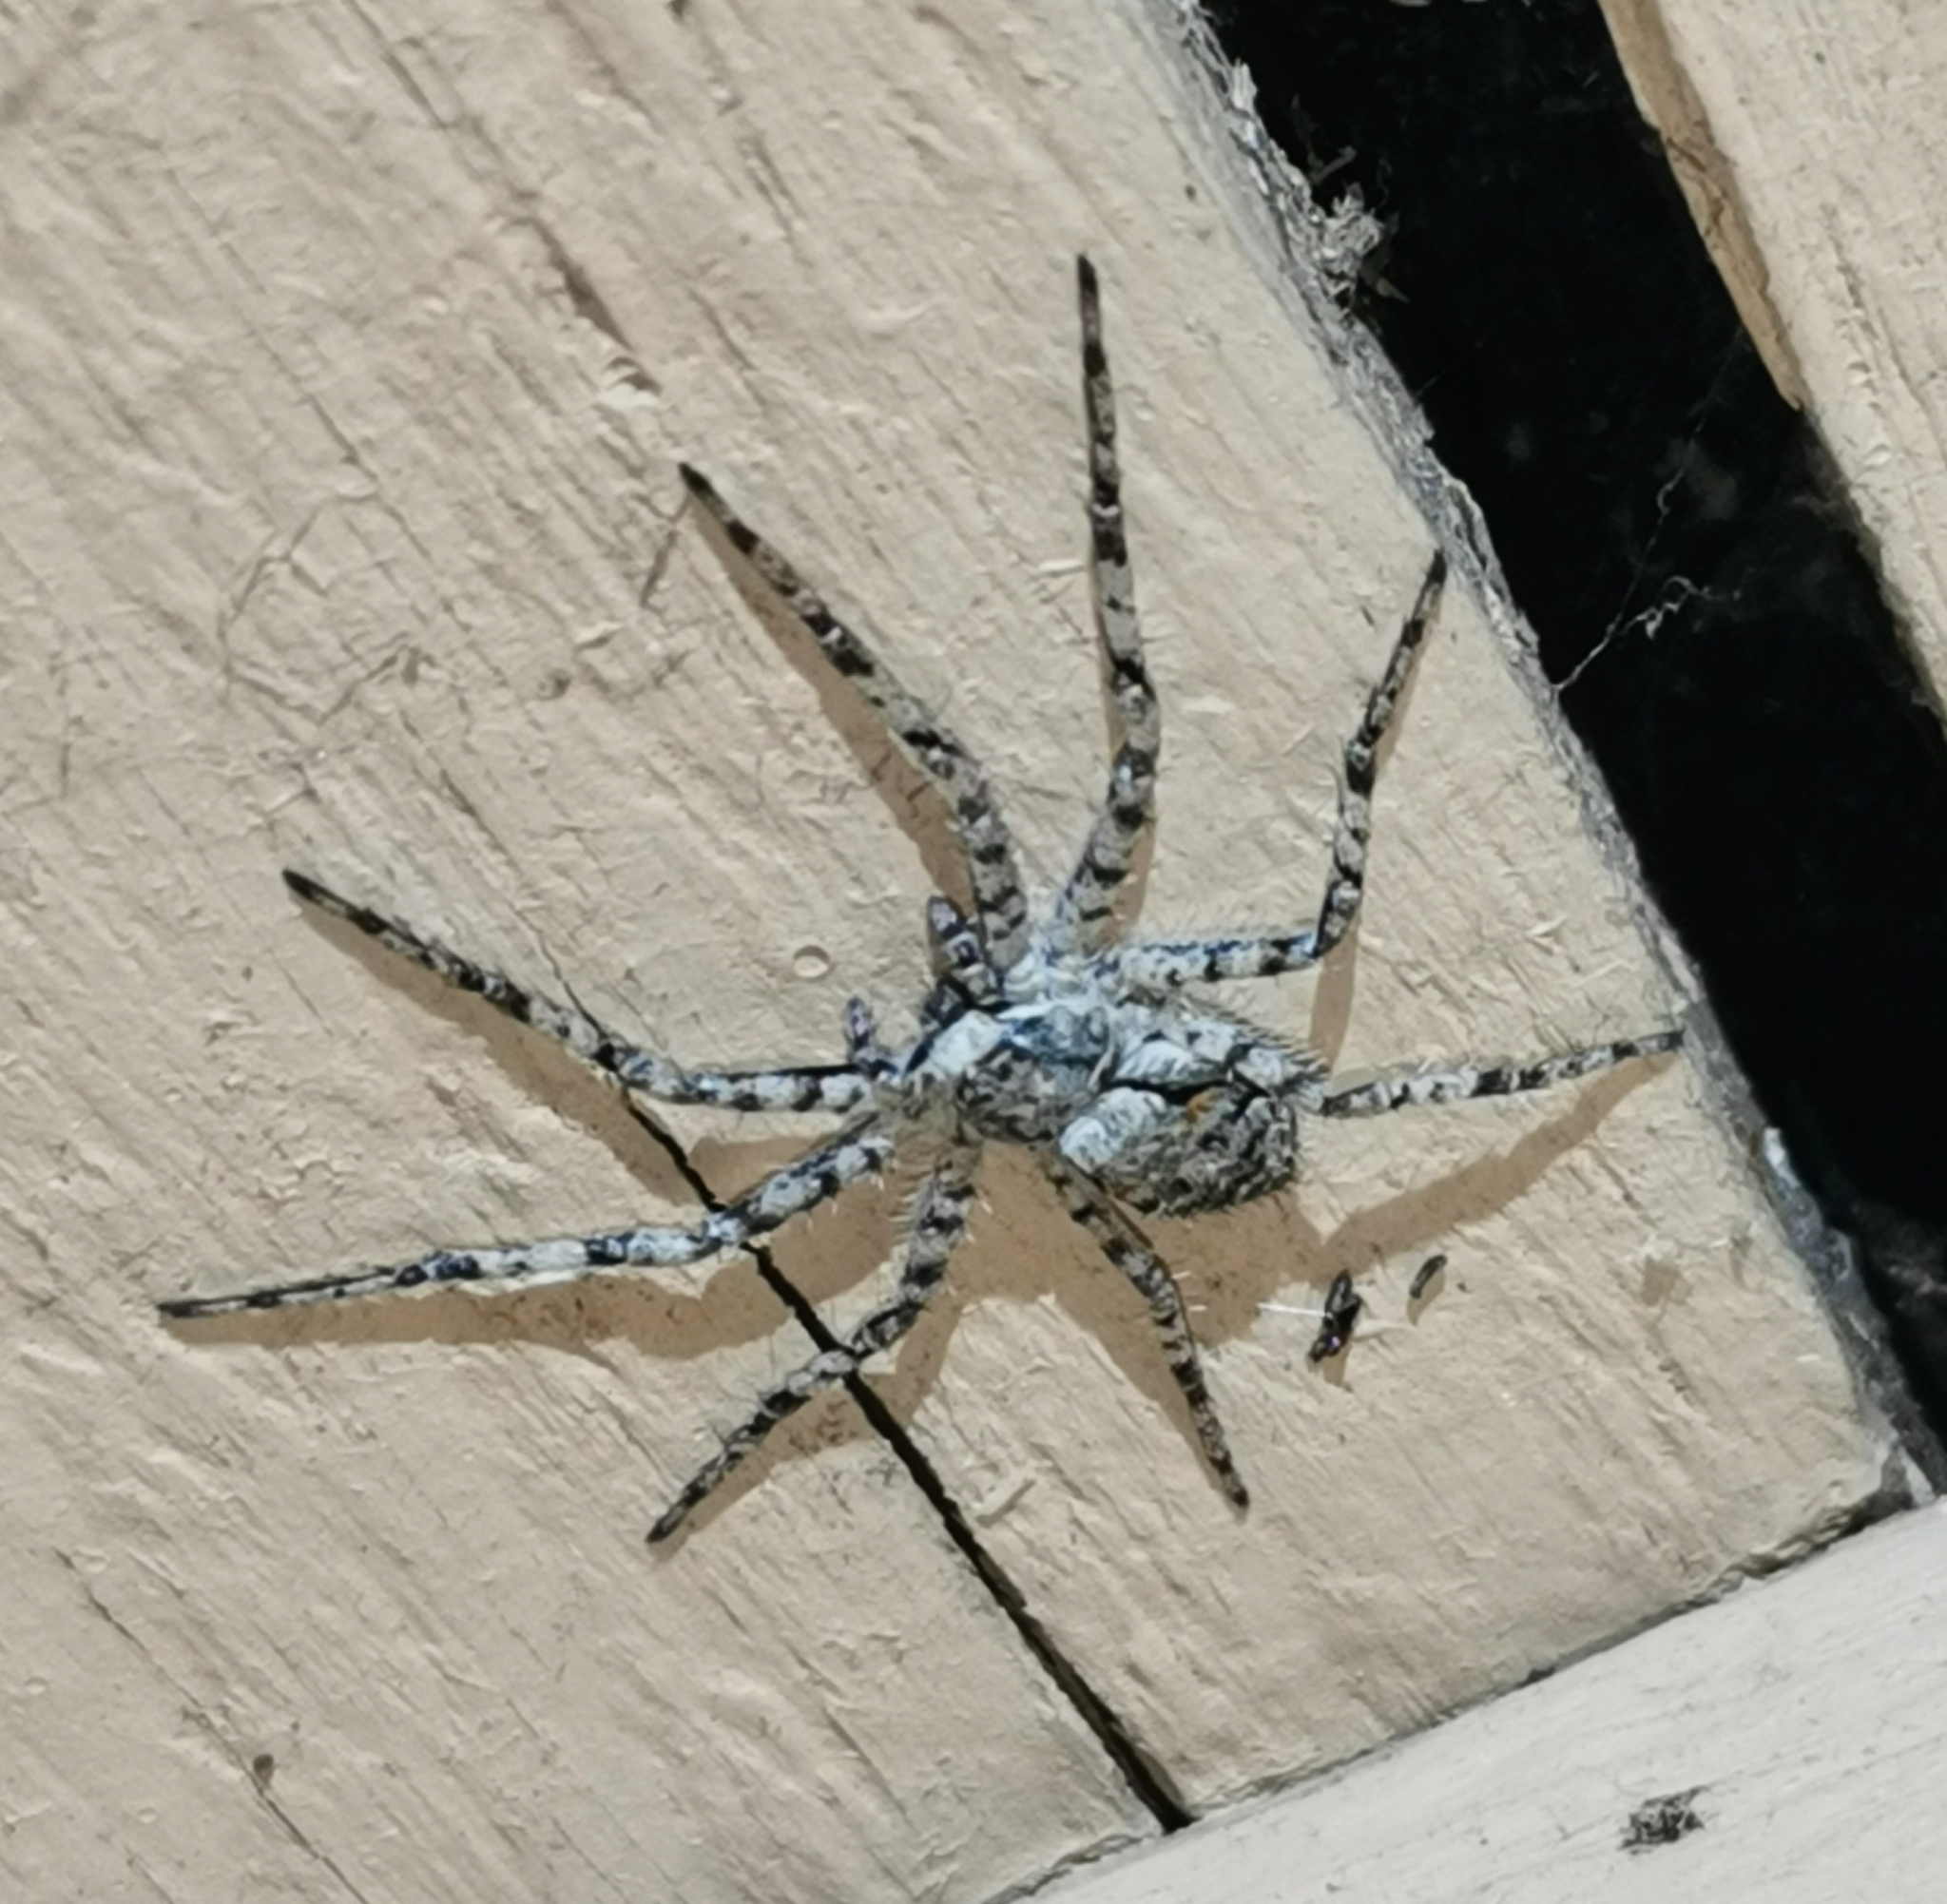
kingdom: Animalia
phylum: Arthropoda
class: Arachnida
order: Araneae
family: Philodromidae
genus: Philodromus
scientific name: Philodromus margaritatus
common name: Lichen running-spider
